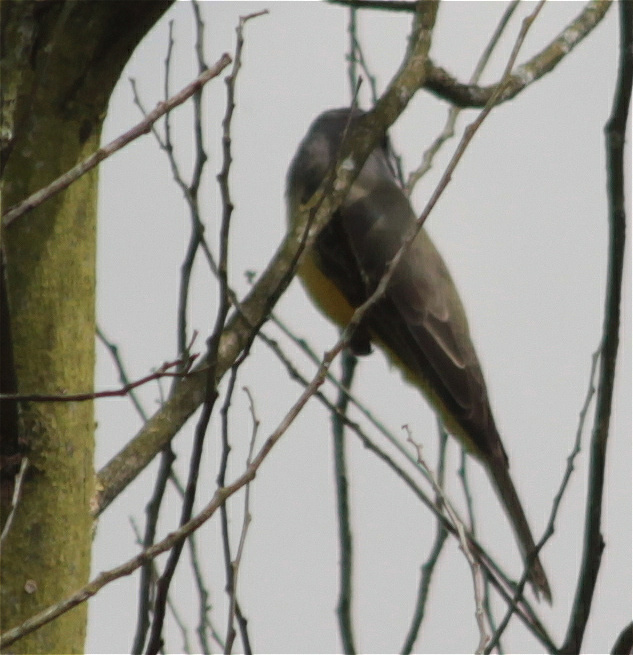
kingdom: Animalia
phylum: Chordata
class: Aves
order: Passeriformes
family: Tyrannidae
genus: Tyrannus
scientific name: Tyrannus melancholicus
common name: Tropical kingbird
